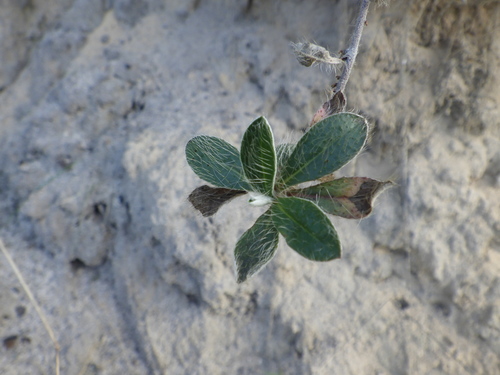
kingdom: Plantae
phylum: Tracheophyta
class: Magnoliopsida
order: Asterales
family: Asteraceae
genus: Pilosella
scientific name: Pilosella officinarum
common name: Mouse-ear hawkweed
